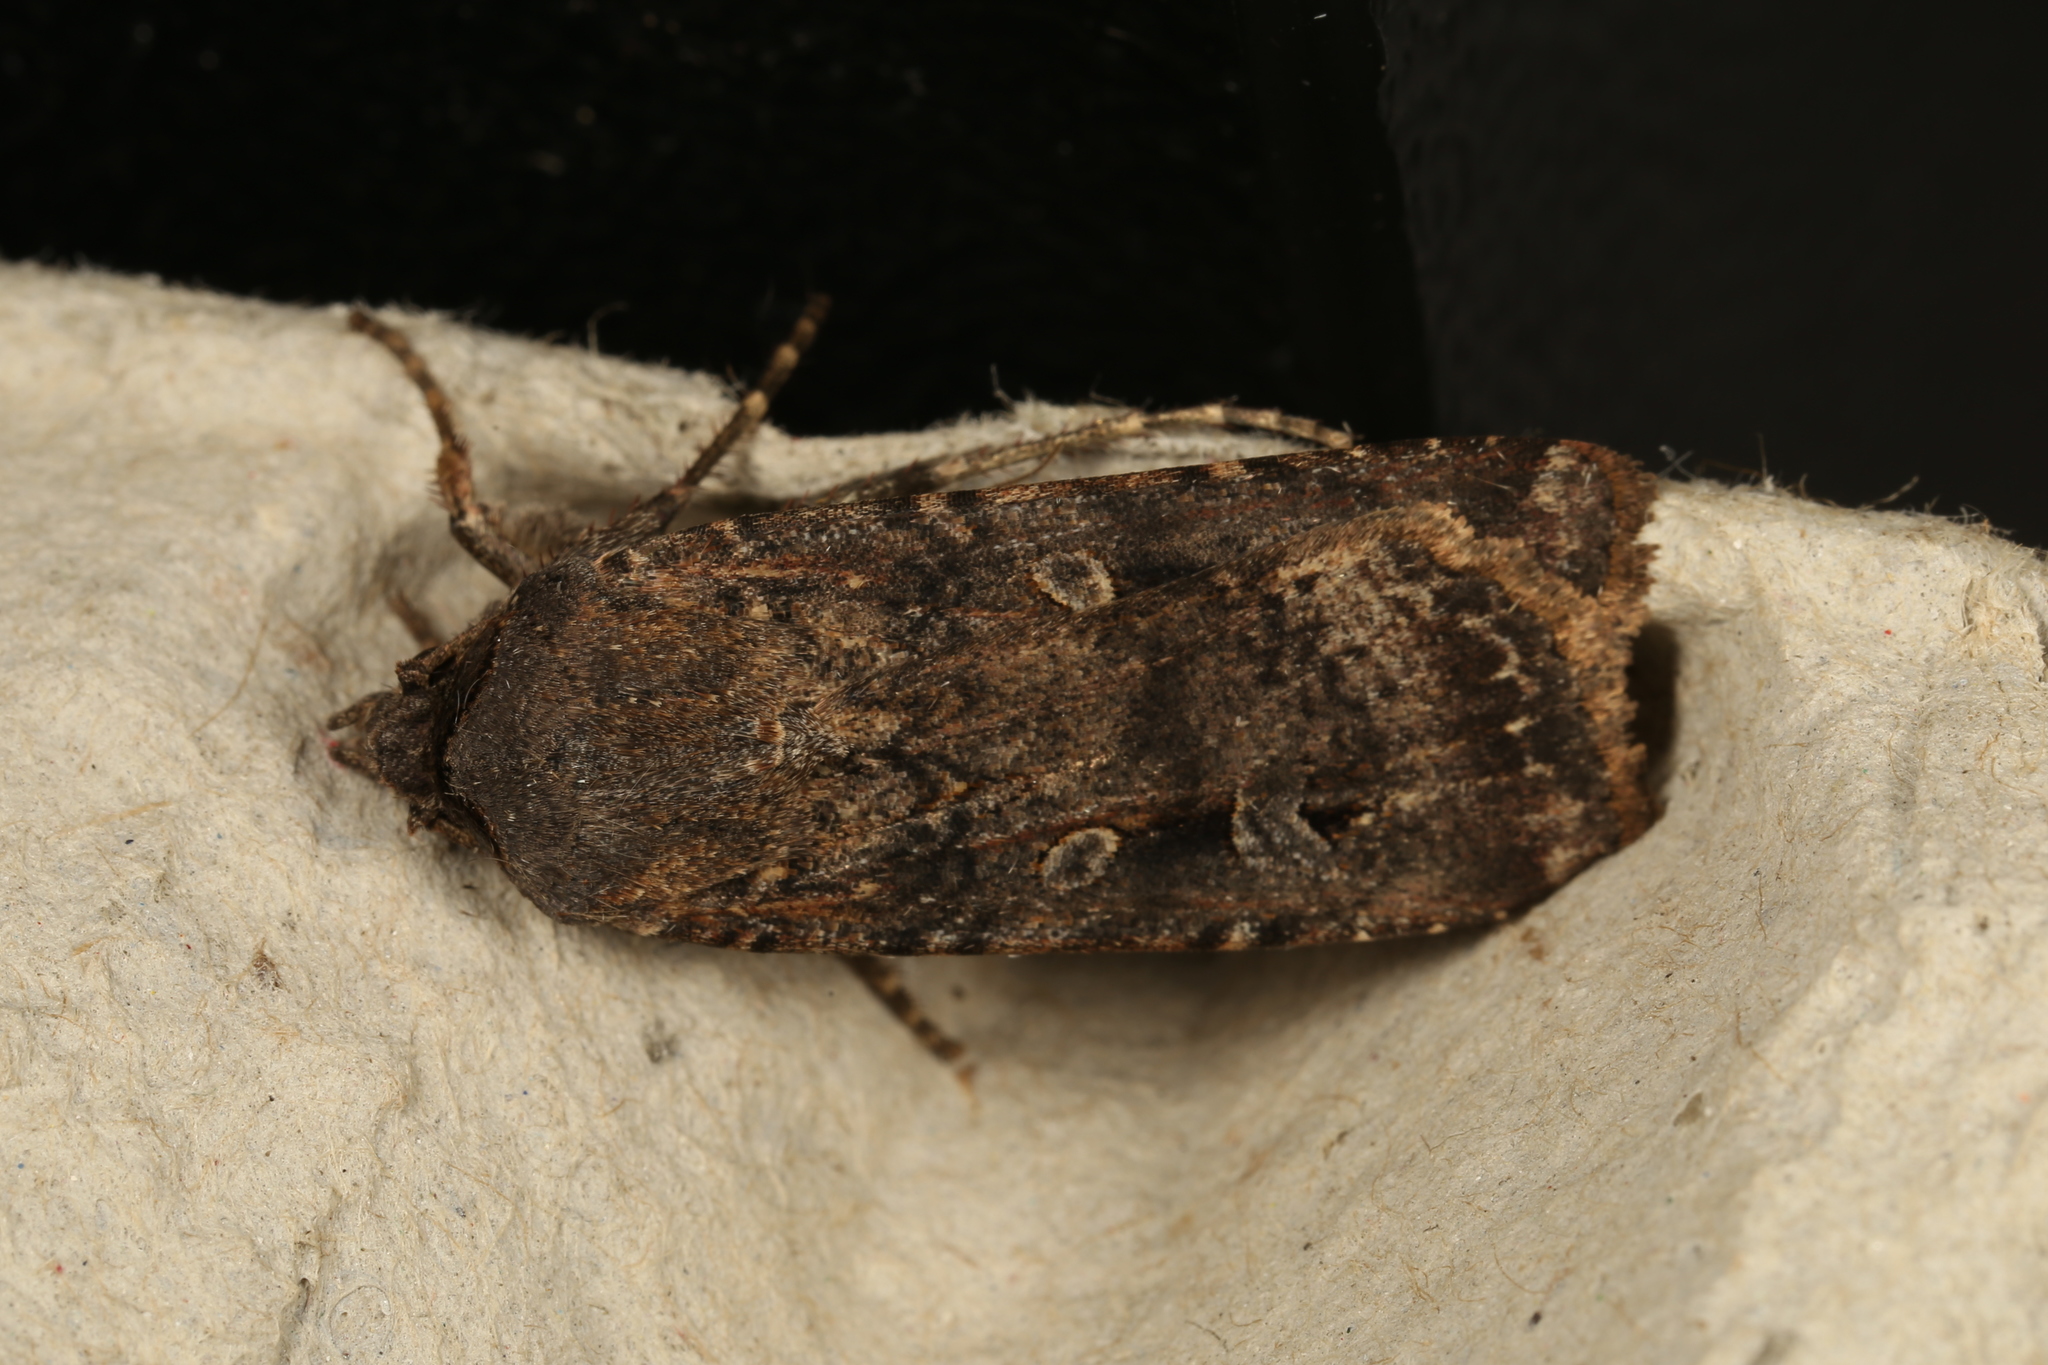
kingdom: Animalia
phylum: Arthropoda
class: Insecta
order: Lepidoptera
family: Noctuidae
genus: Agrotis
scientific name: Agrotis infusa
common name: Bogong moth
